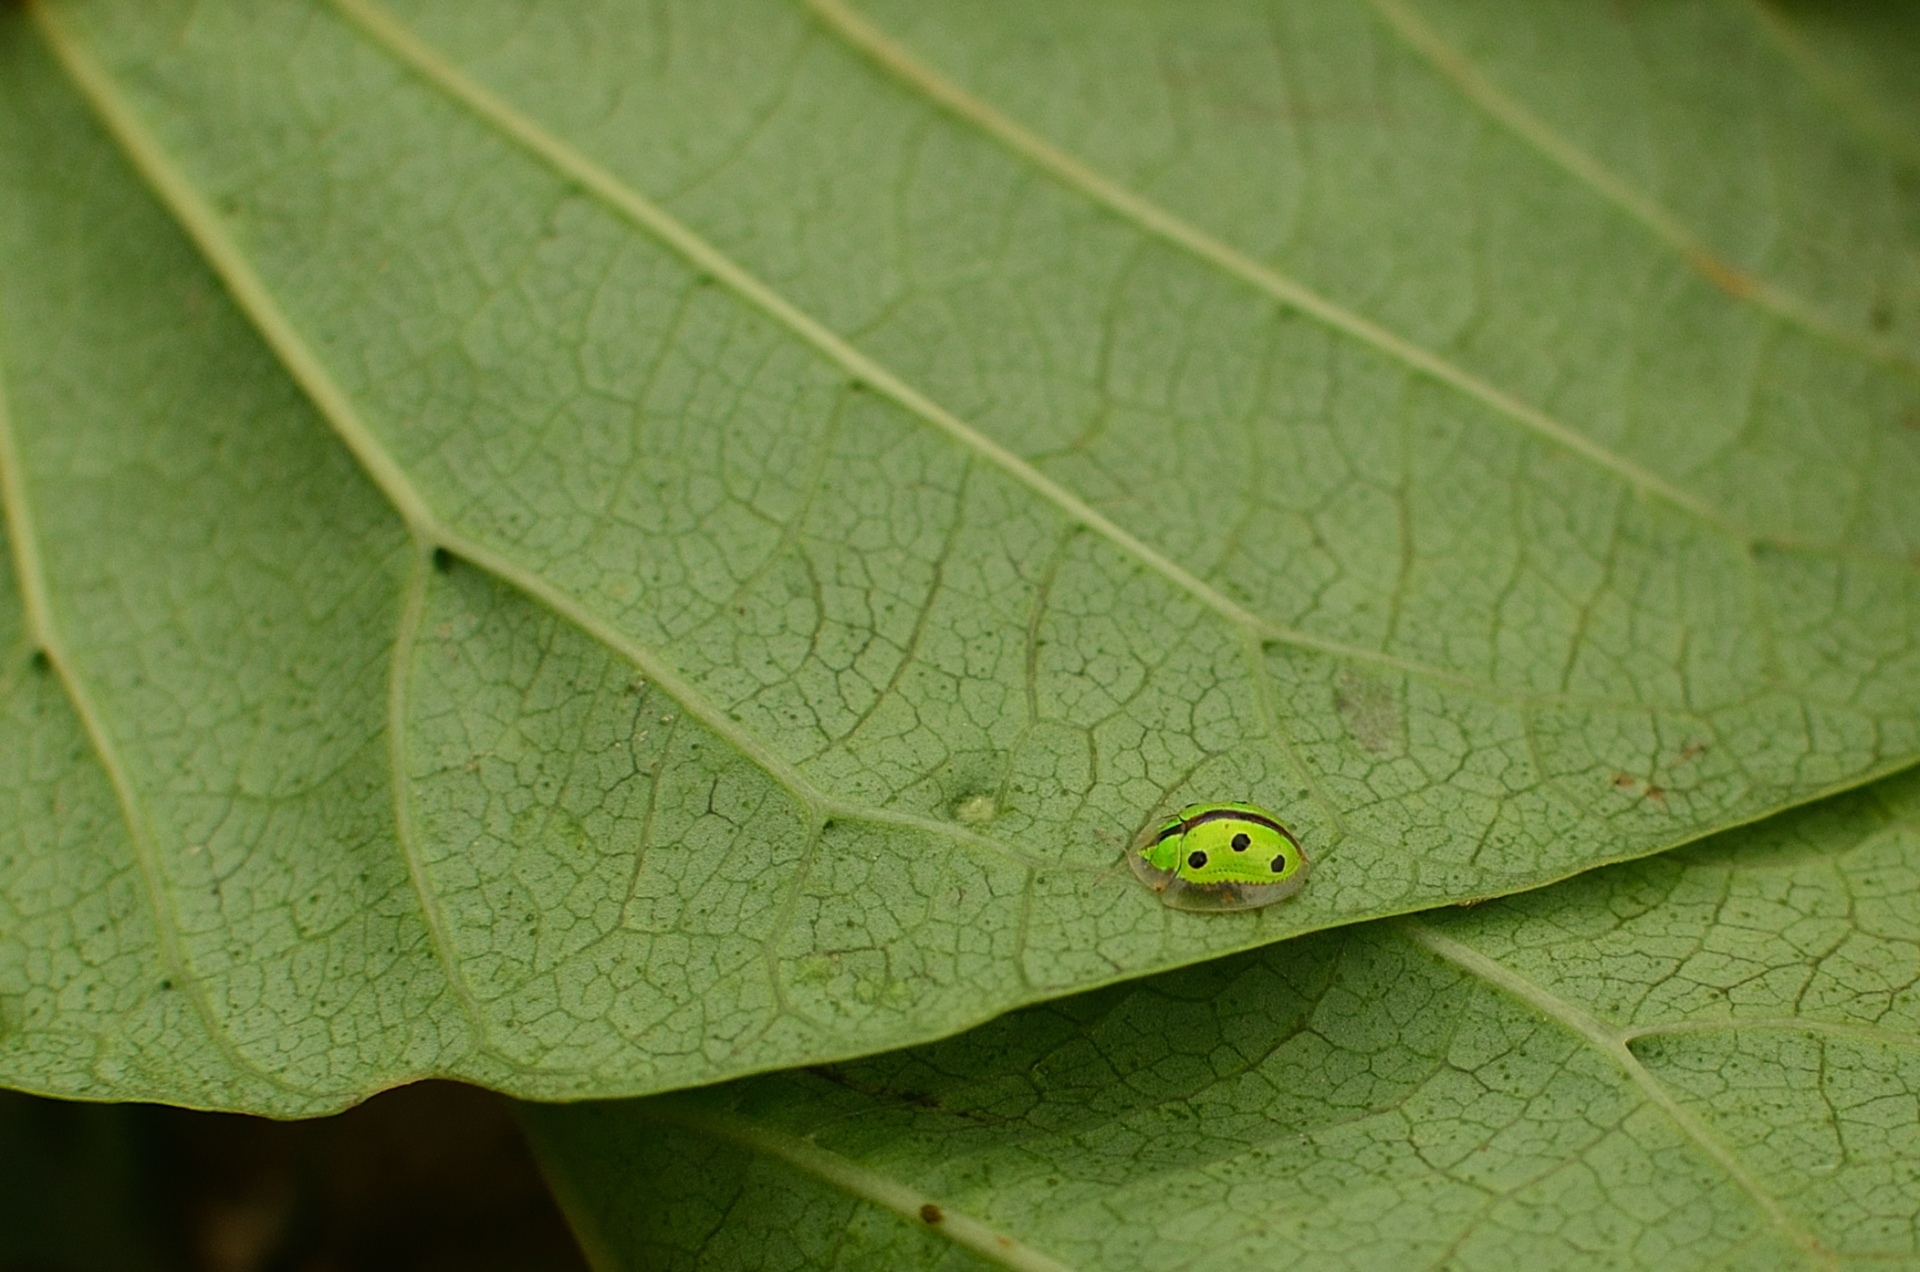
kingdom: Animalia
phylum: Arthropoda
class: Insecta
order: Coleoptera
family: Chrysomelidae
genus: Chiridopsis
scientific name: Chiridopsis bipunctata
